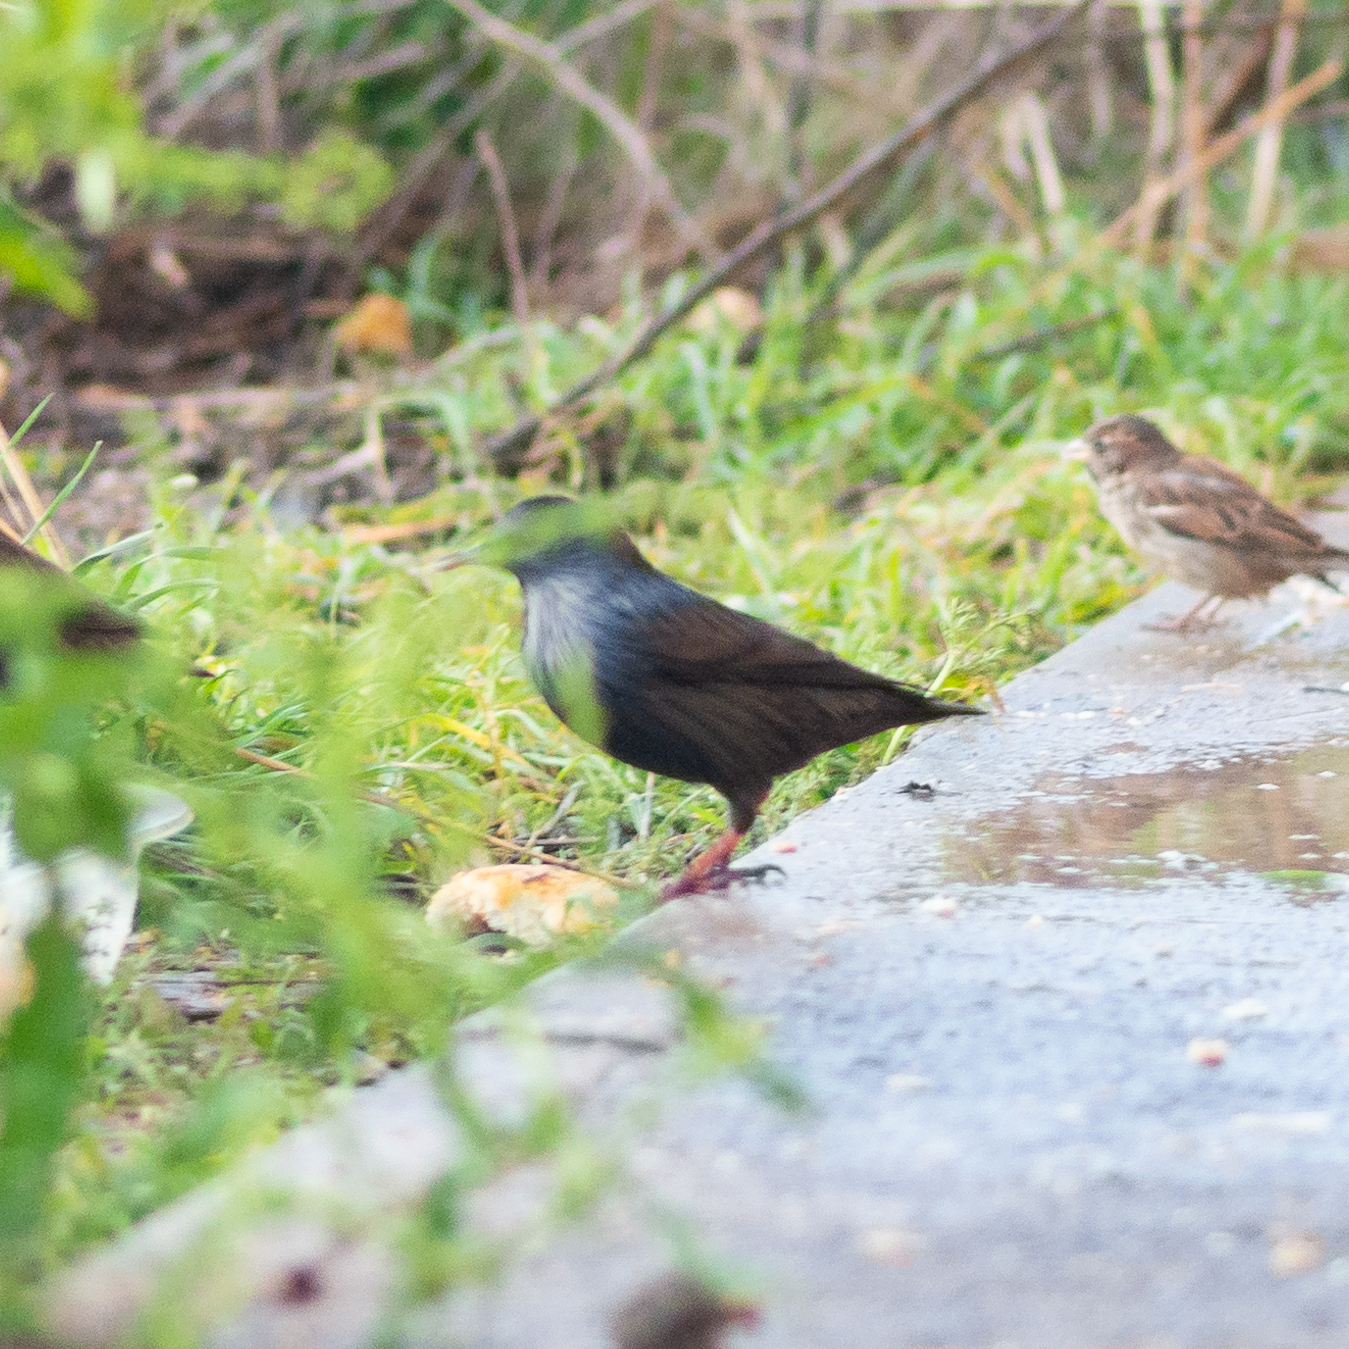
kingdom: Animalia
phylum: Chordata
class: Aves
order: Passeriformes
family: Sturnidae
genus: Sturnus
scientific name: Sturnus unicolor
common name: Spotless starling
